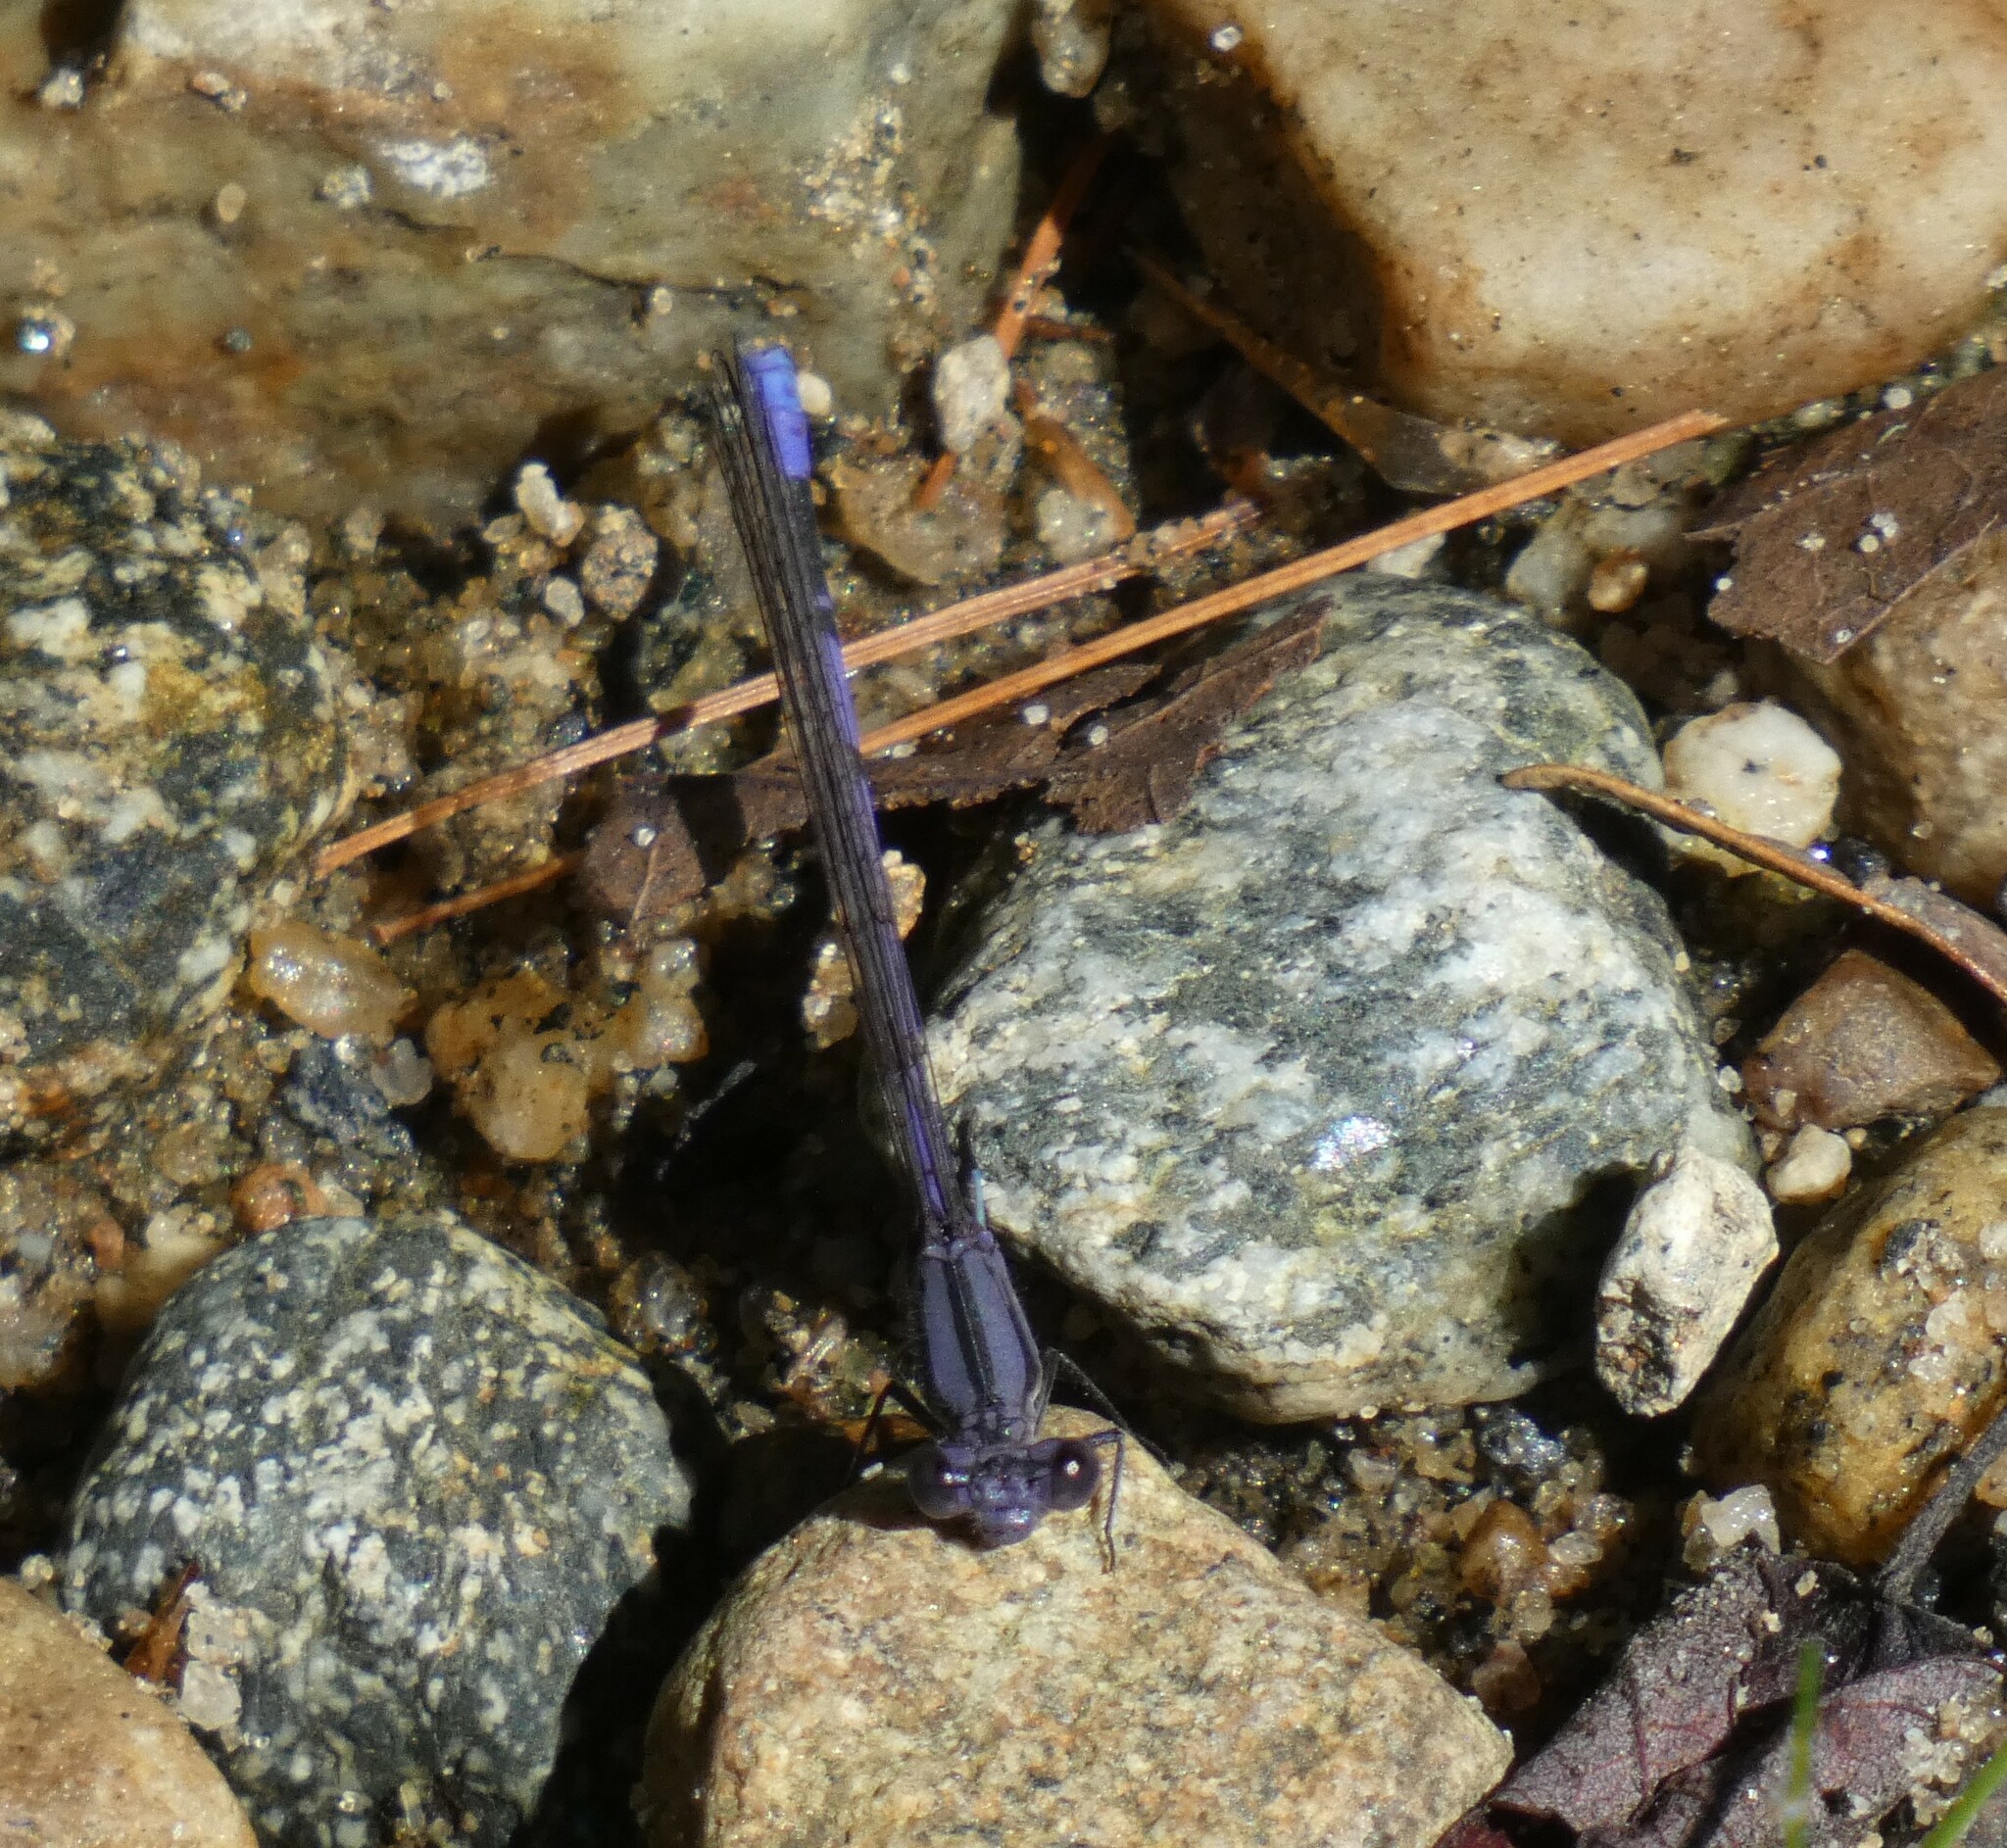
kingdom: Animalia
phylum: Arthropoda
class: Insecta
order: Odonata
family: Coenagrionidae
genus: Argia
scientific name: Argia fumipennis
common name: Variable dancer
